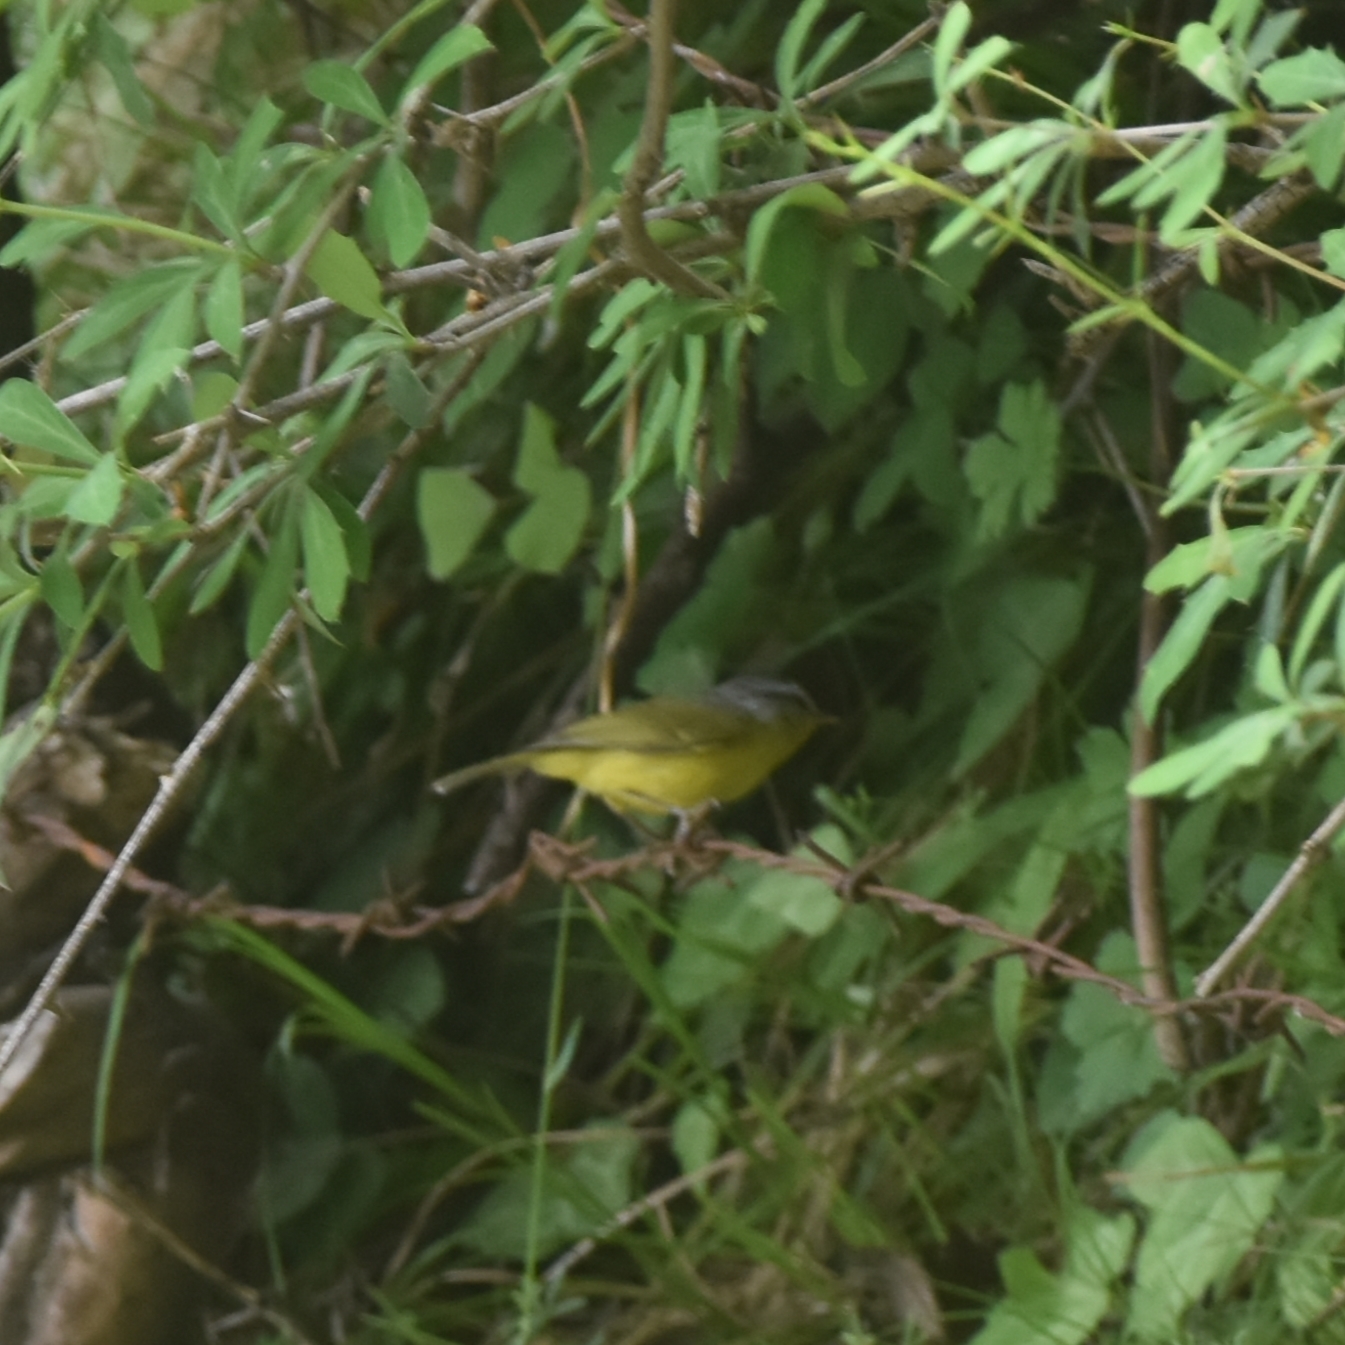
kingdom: Animalia
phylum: Chordata
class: Aves
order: Passeriformes
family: Phylloscopidae
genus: Phylloscopus
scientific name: Phylloscopus xanthoschistos
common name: Grey-hooded warbler
